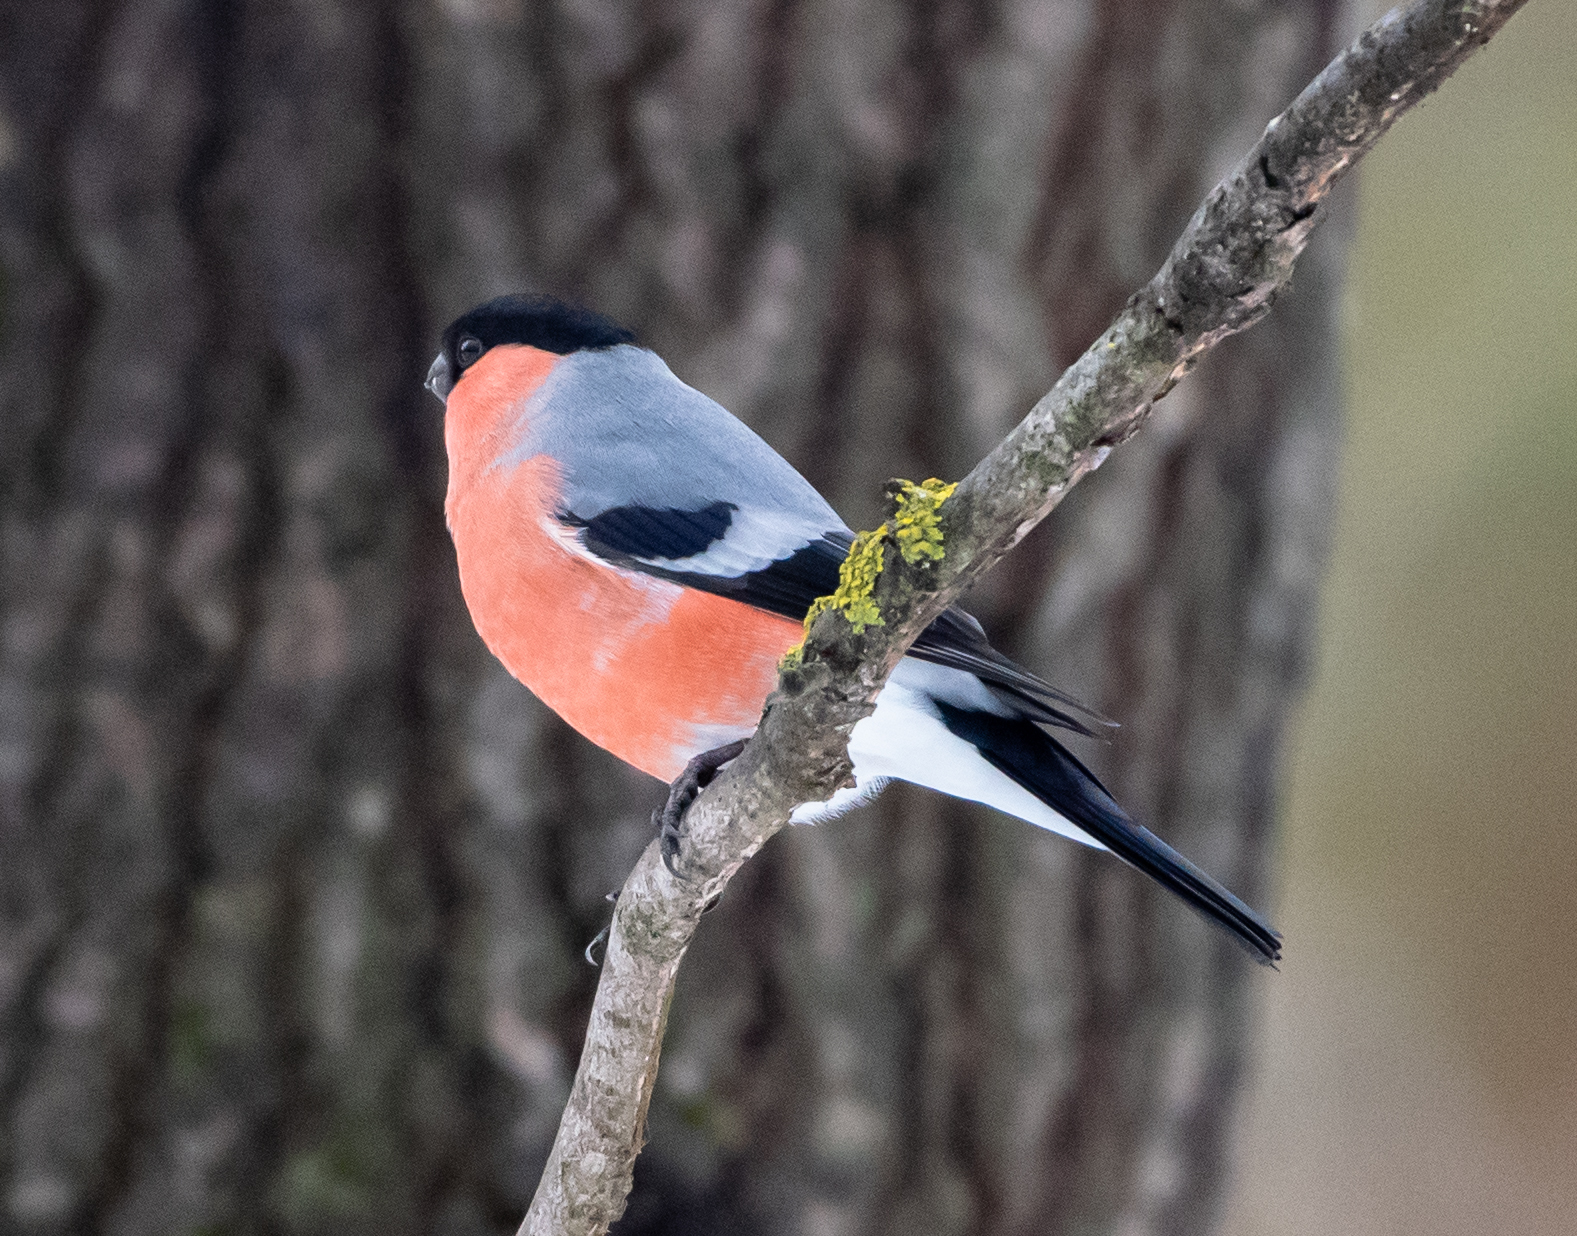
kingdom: Animalia
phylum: Chordata
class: Aves
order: Passeriformes
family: Fringillidae
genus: Pyrrhula
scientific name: Pyrrhula pyrrhula
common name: Eurasian bullfinch
